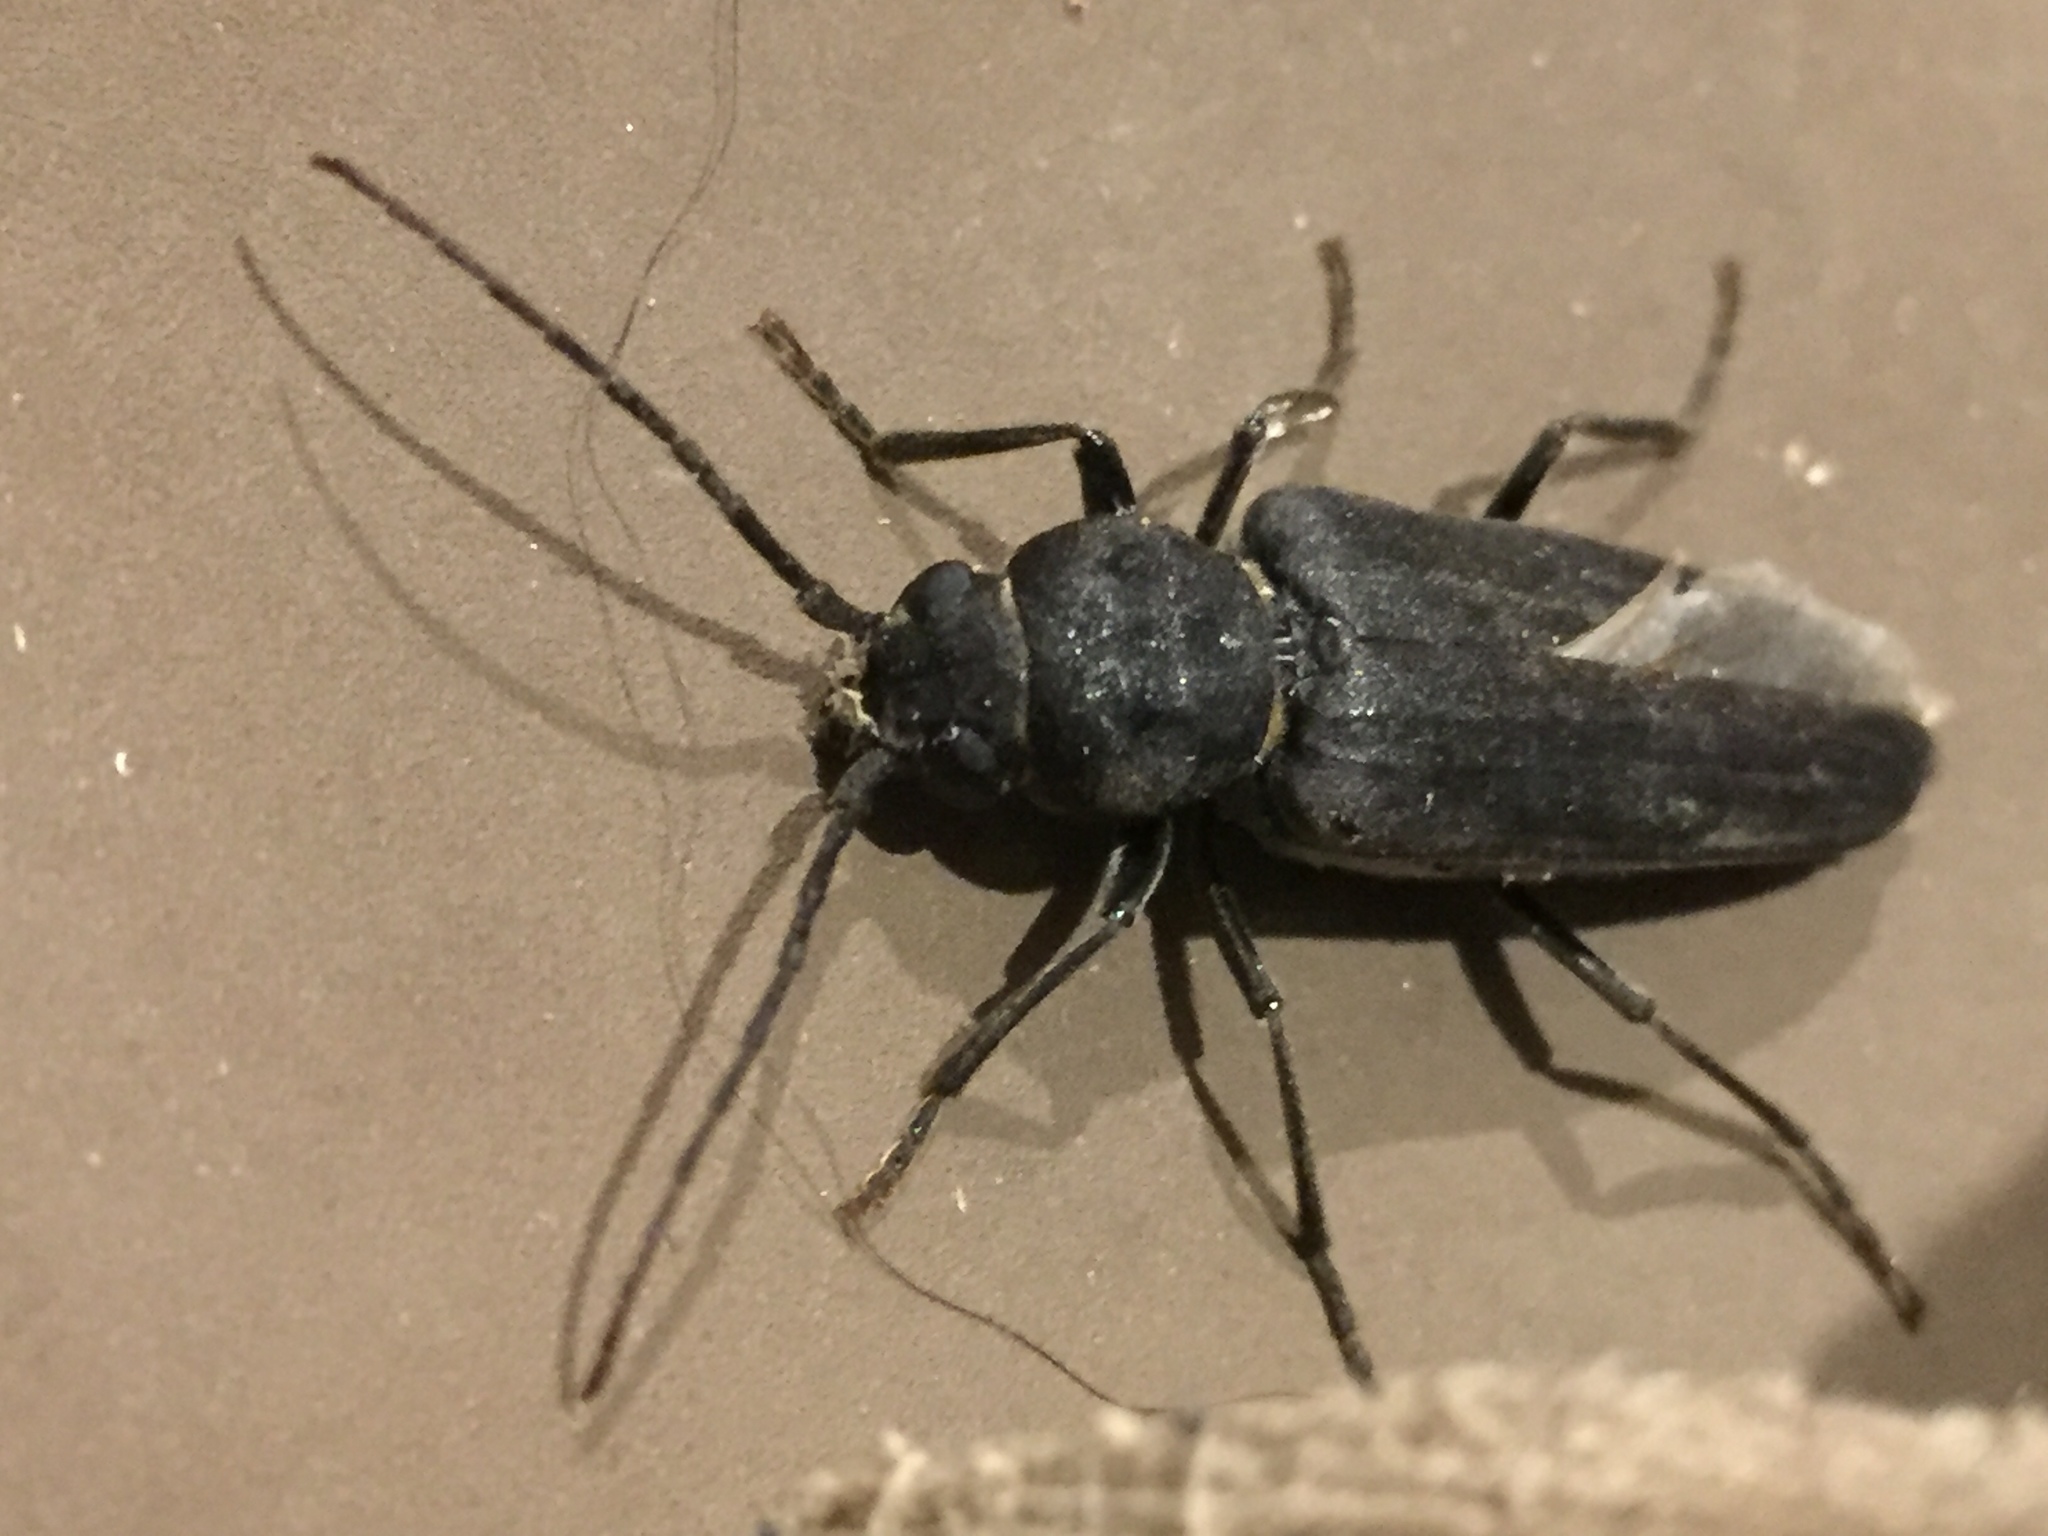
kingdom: Animalia
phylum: Arthropoda
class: Insecta
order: Coleoptera
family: Cerambycidae
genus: Arhopalus
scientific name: Arhopalus ferus
